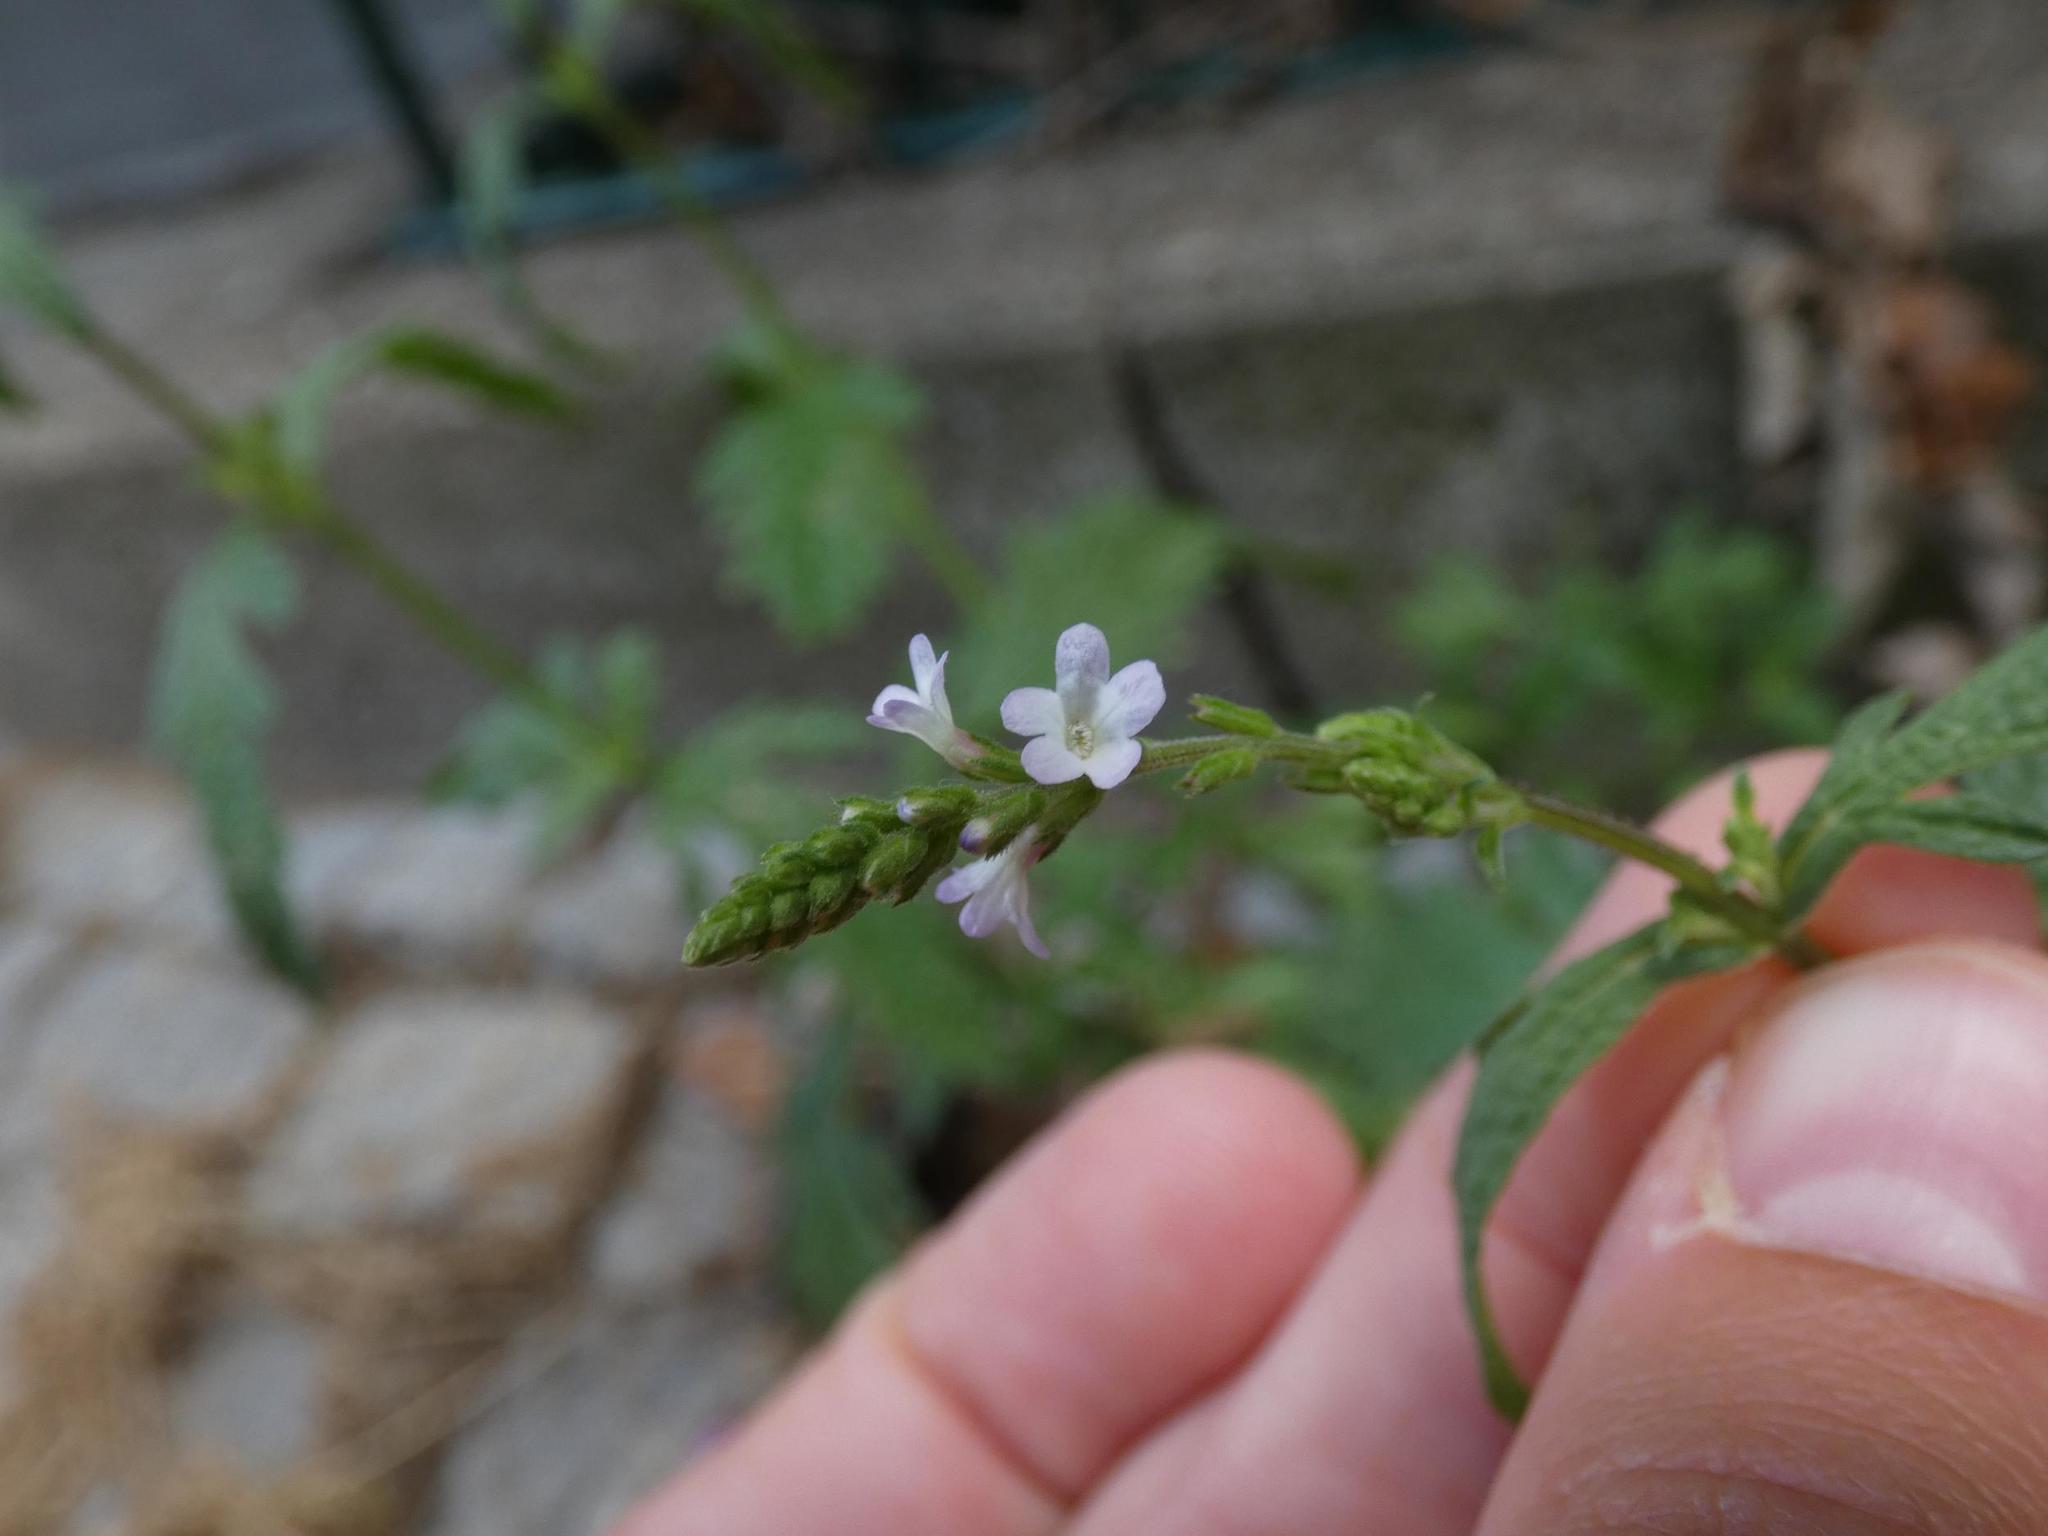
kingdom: Plantae
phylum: Tracheophyta
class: Magnoliopsida
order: Lamiales
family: Verbenaceae
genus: Verbena
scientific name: Verbena officinalis
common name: Vervain
